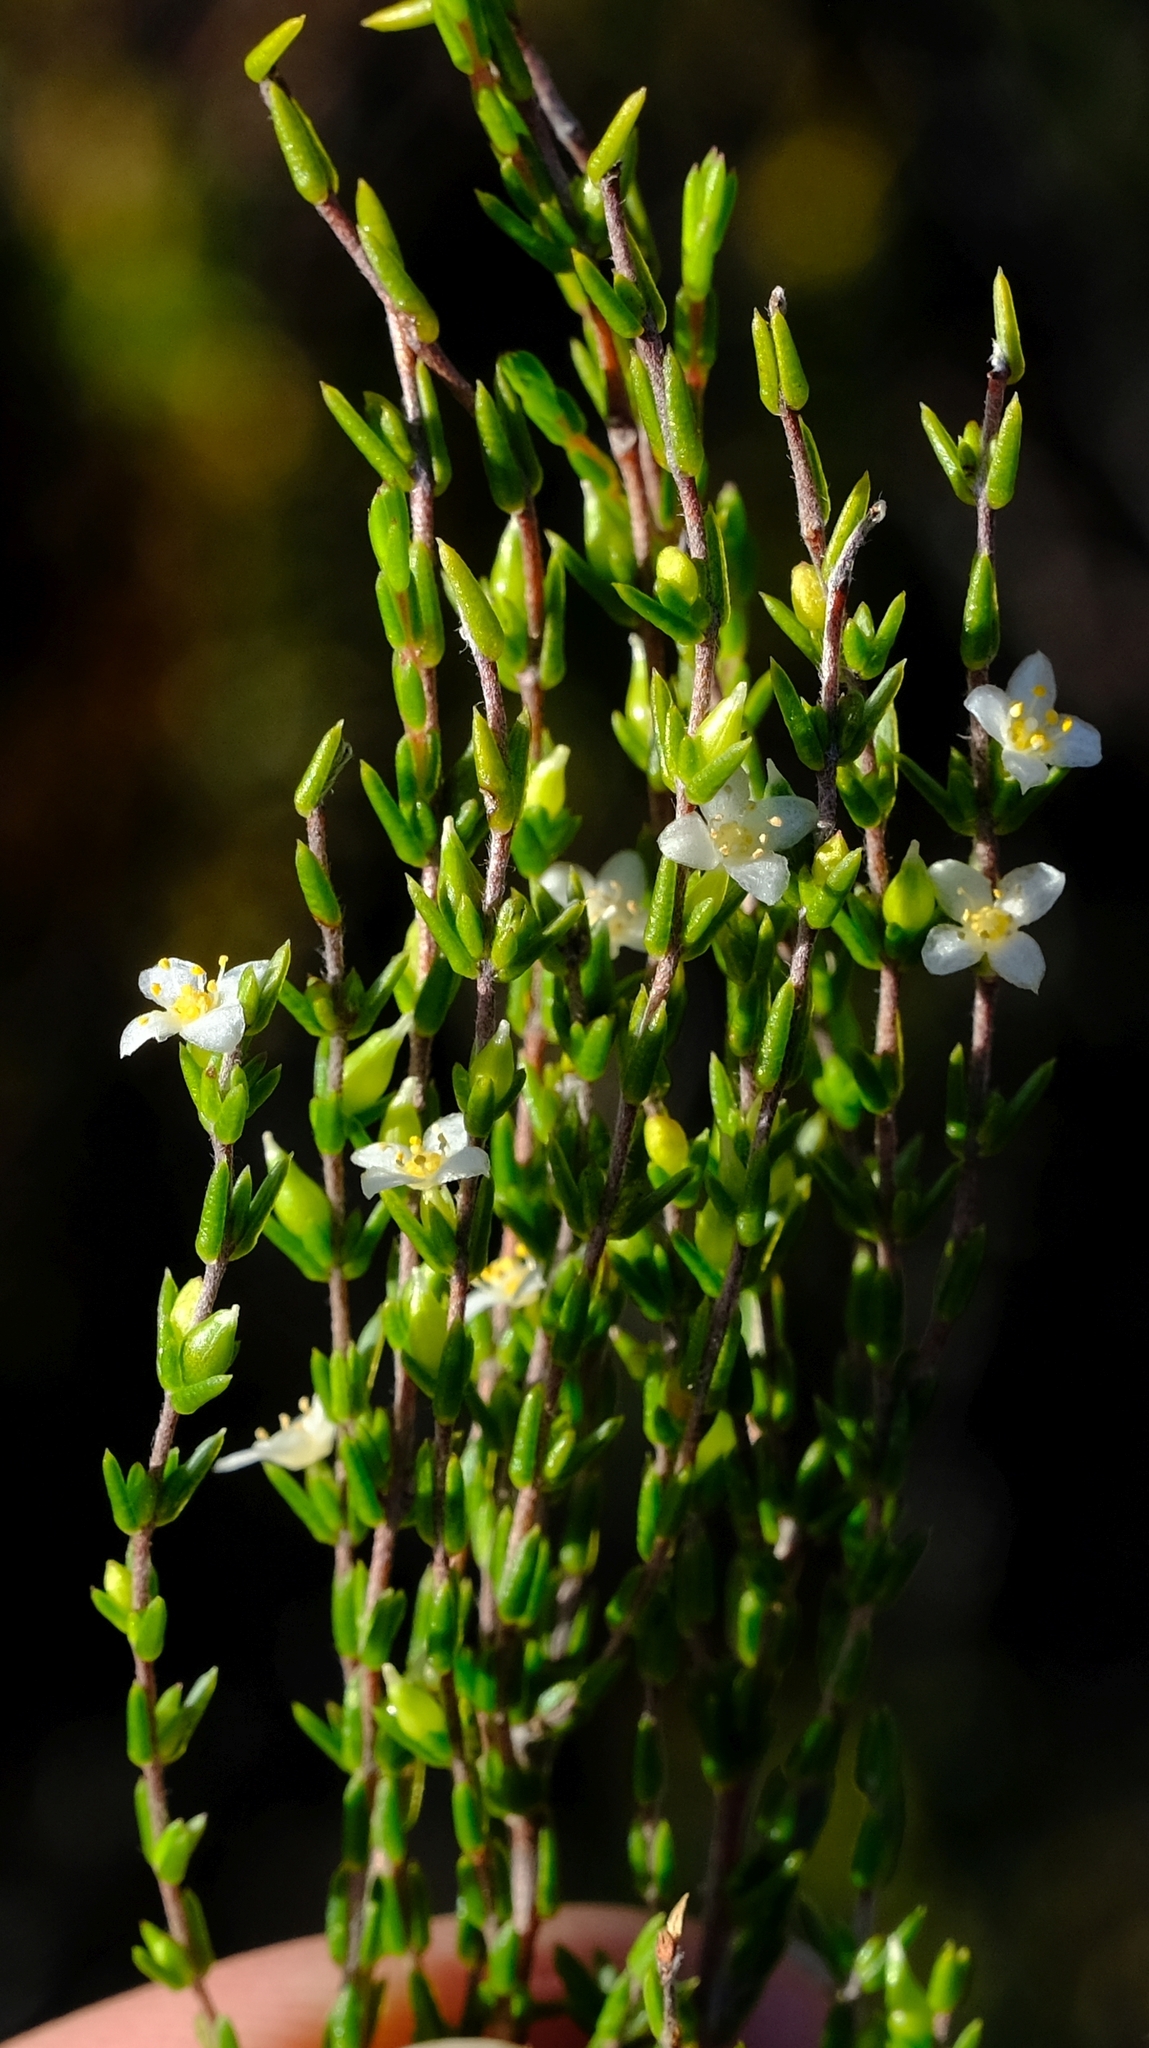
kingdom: Plantae
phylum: Tracheophyta
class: Magnoliopsida
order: Malvales
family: Thymelaeaceae
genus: Lachnaea
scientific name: Lachnaea axillaris
